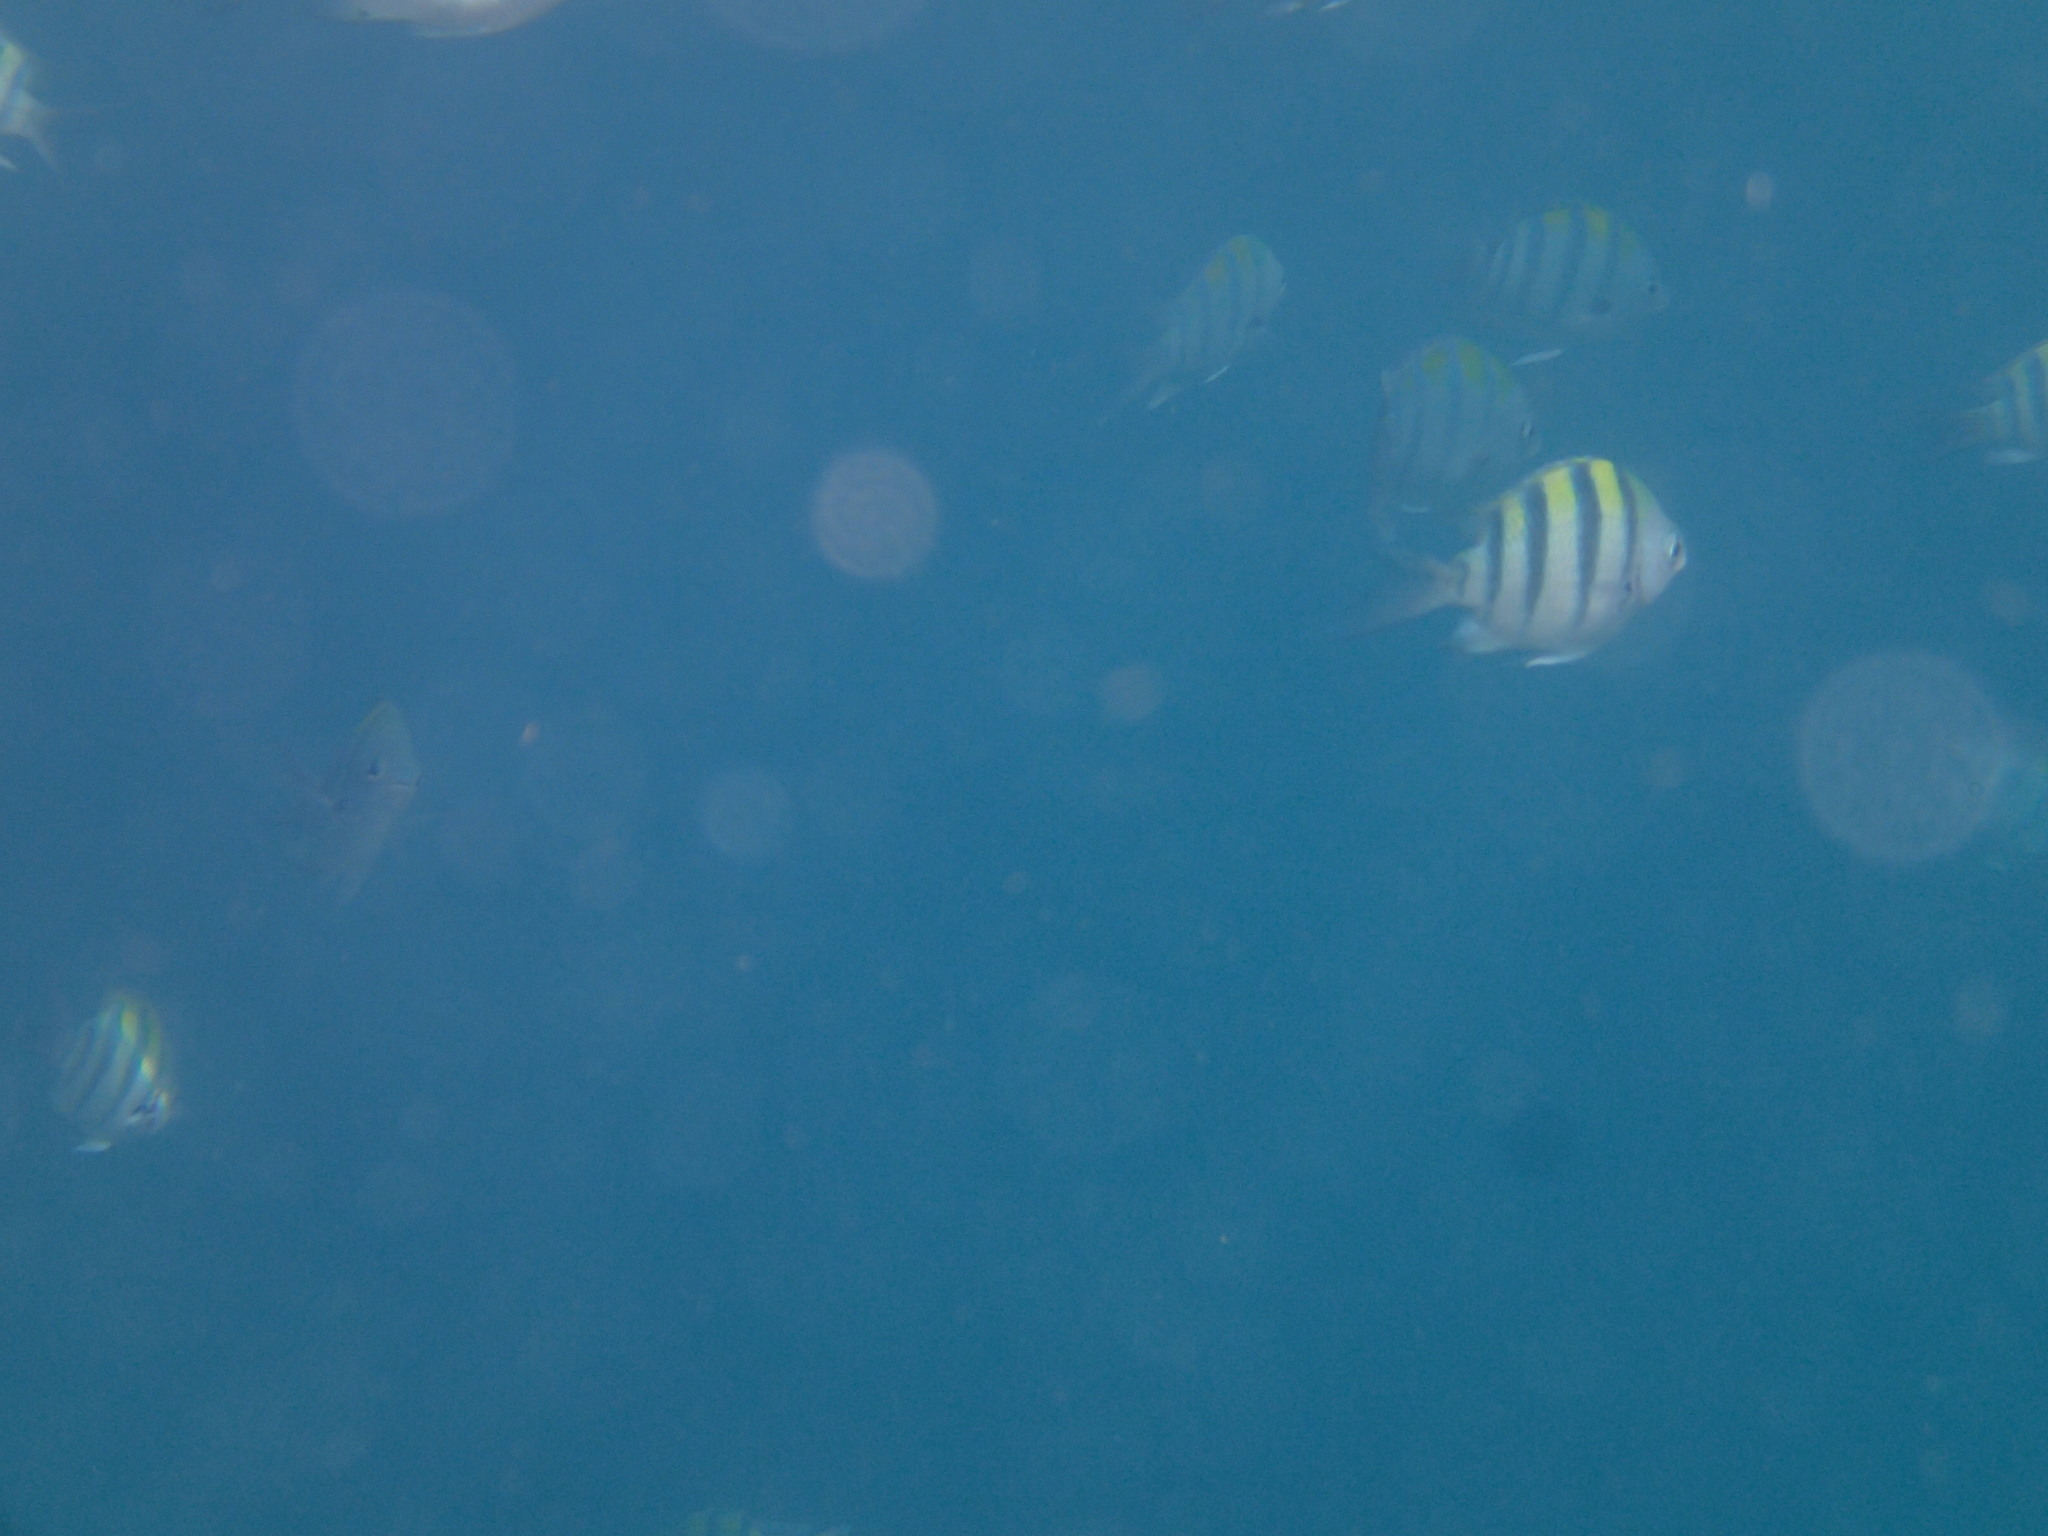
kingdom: Animalia
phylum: Chordata
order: Perciformes
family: Pomacentridae
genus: Abudefduf
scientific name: Abudefduf vaigiensis
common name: Indo-pacific sergeant
